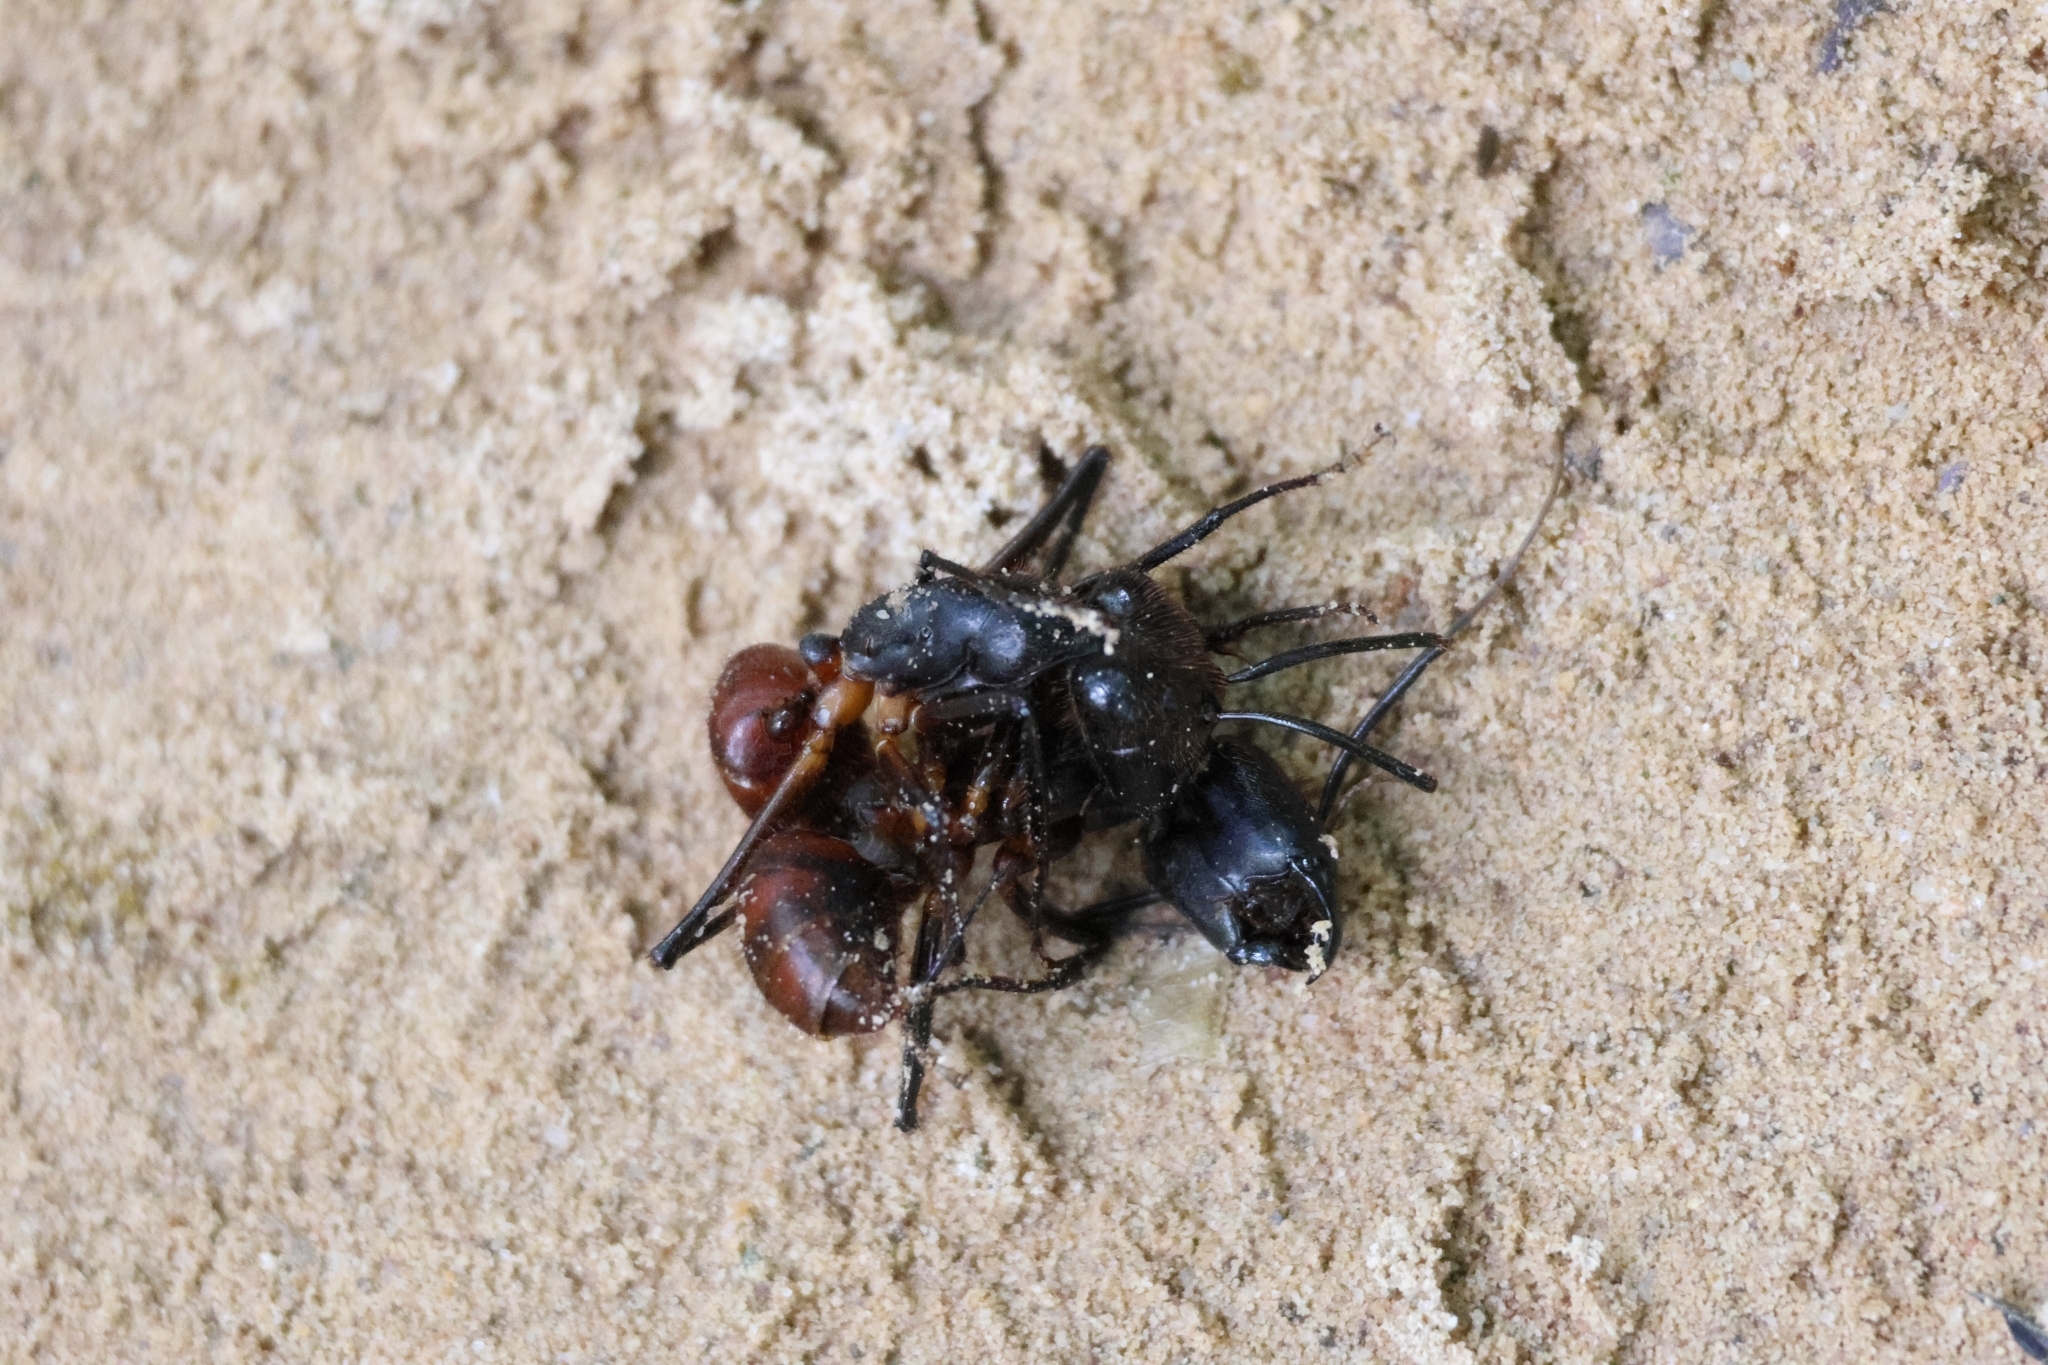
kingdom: Animalia
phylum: Arthropoda
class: Insecta
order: Hymenoptera
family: Formicidae
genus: Dinomyrmex
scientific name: Dinomyrmex
